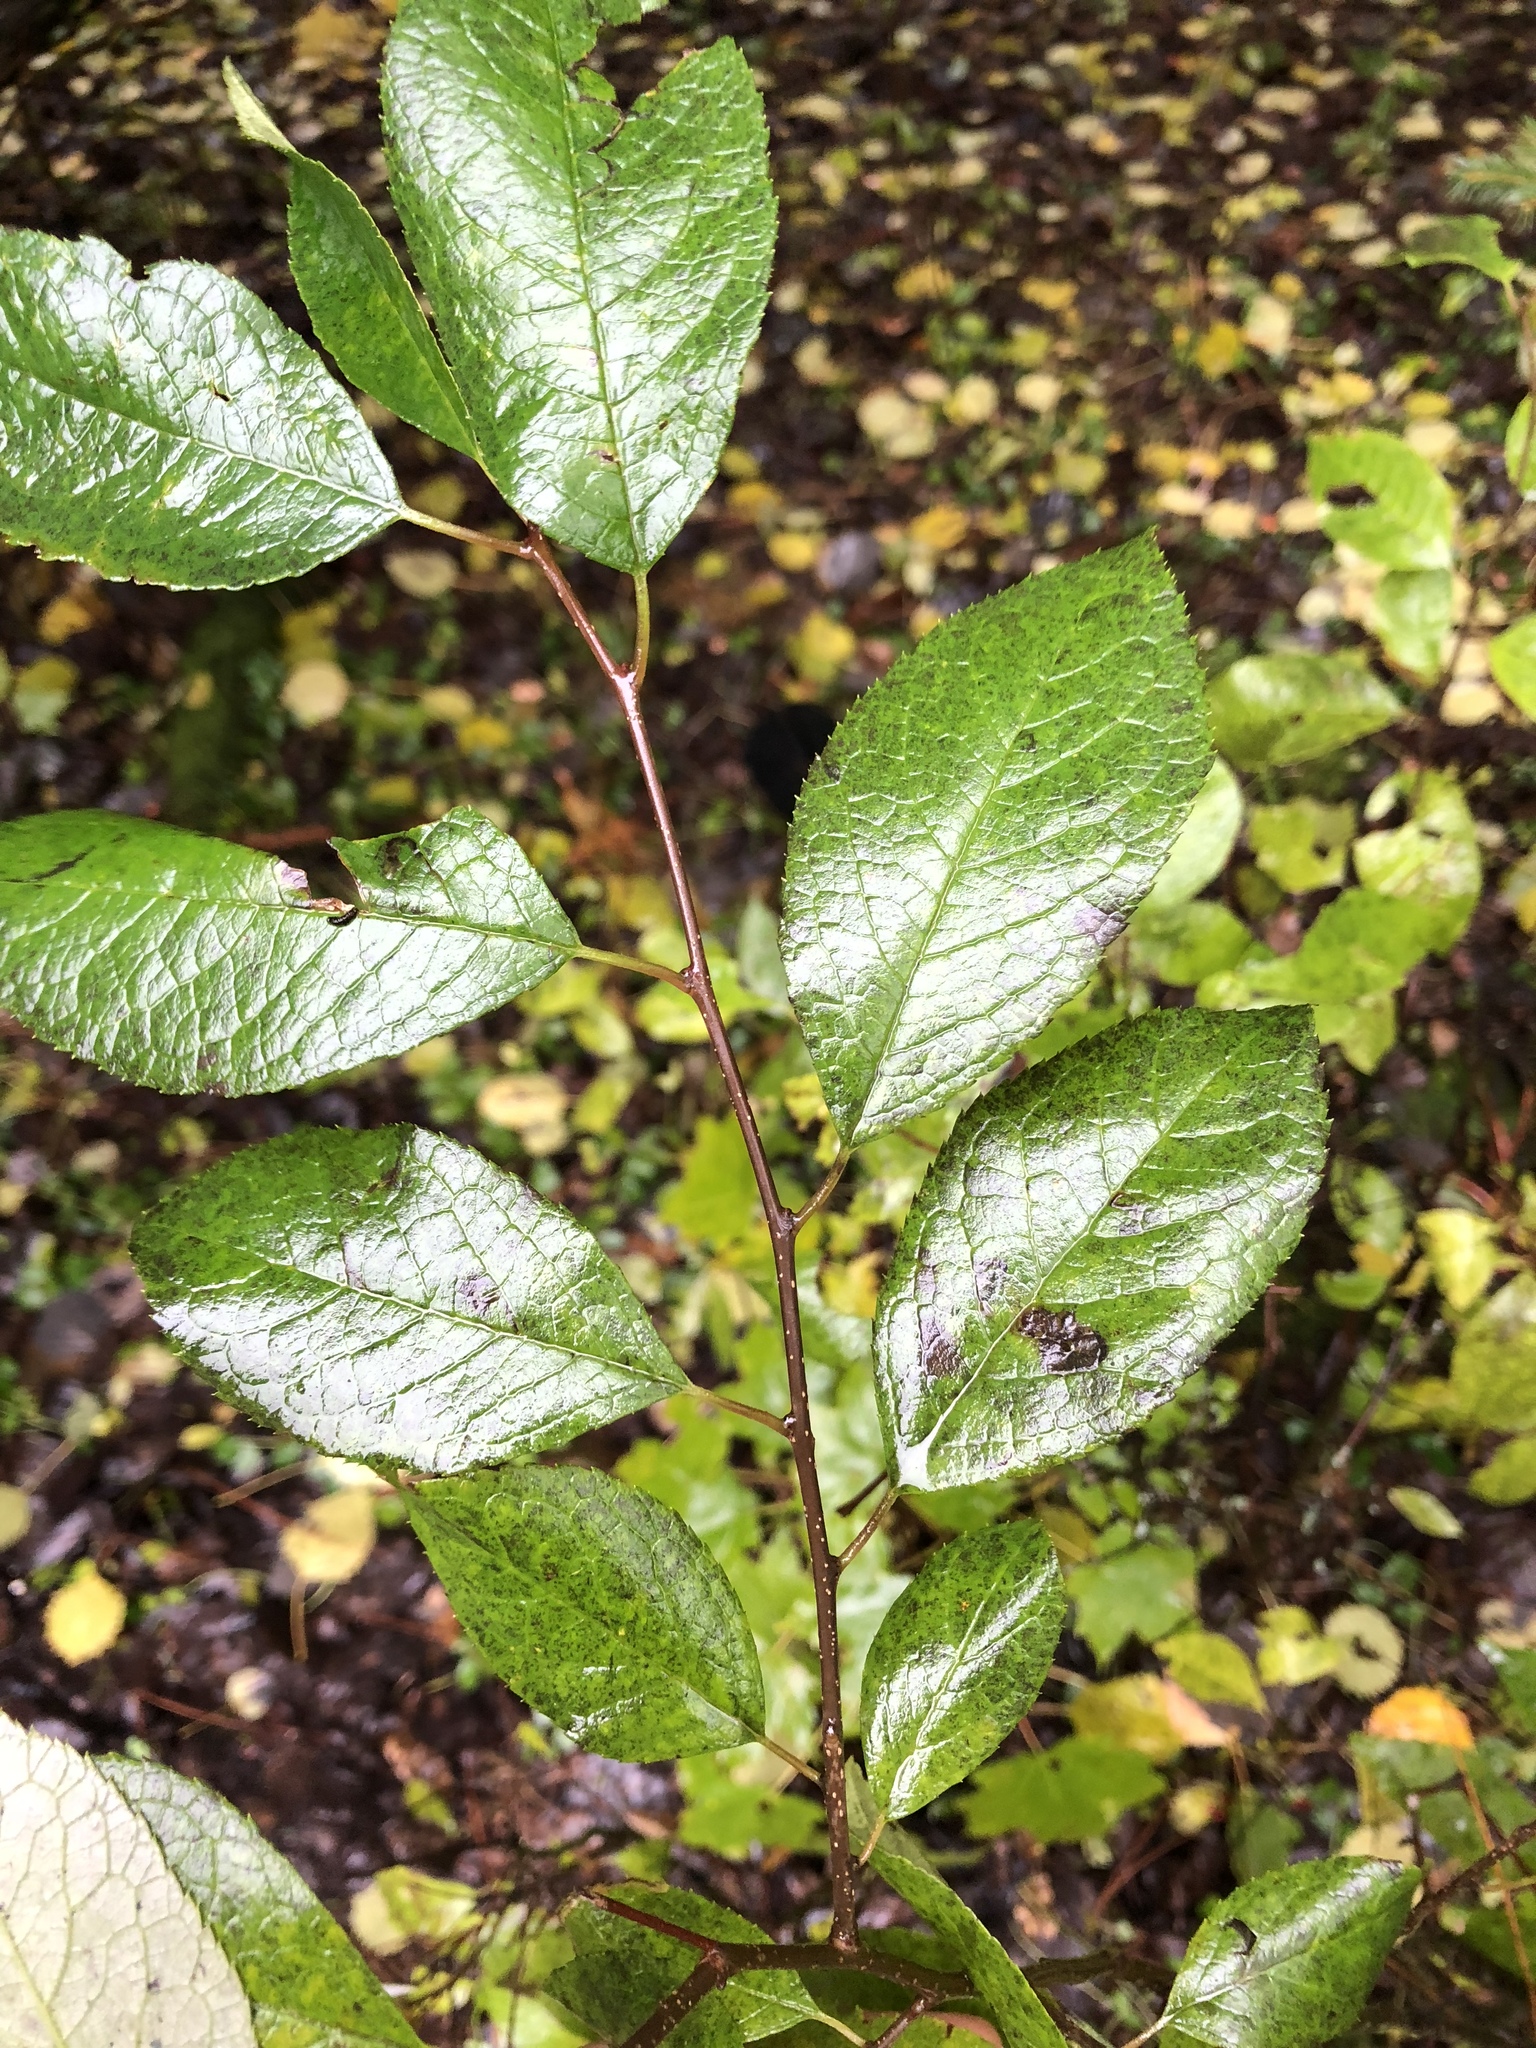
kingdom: Plantae
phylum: Tracheophyta
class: Magnoliopsida
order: Aquifoliales
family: Aquifoliaceae
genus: Ilex
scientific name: Ilex verticillata
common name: Virginia winterberry
